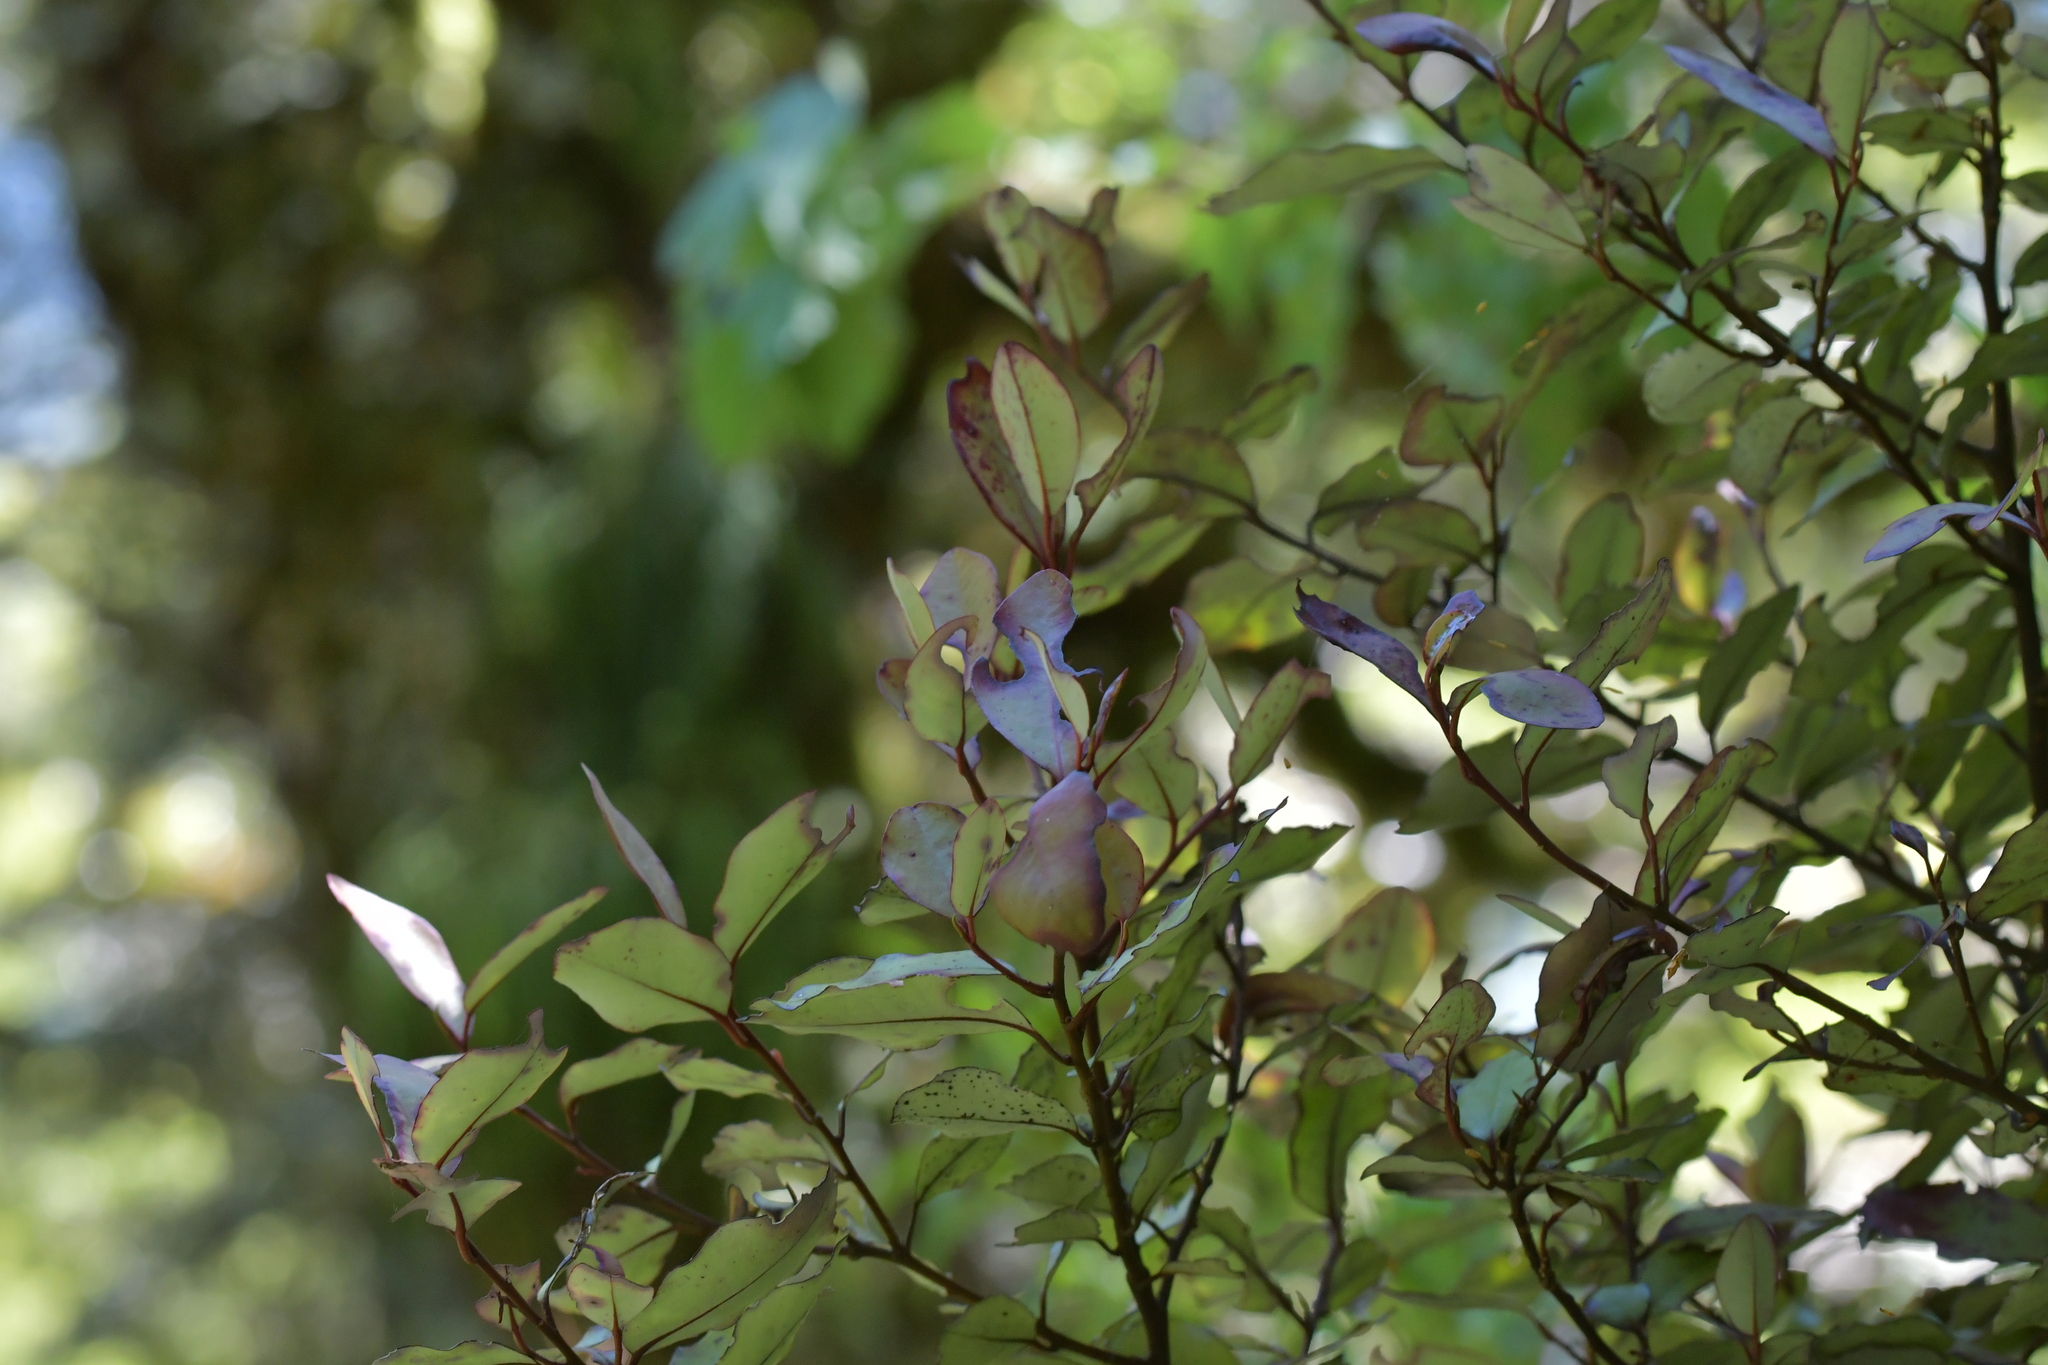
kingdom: Plantae
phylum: Tracheophyta
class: Magnoliopsida
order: Canellales
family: Winteraceae
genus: Pseudowintera
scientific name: Pseudowintera colorata
